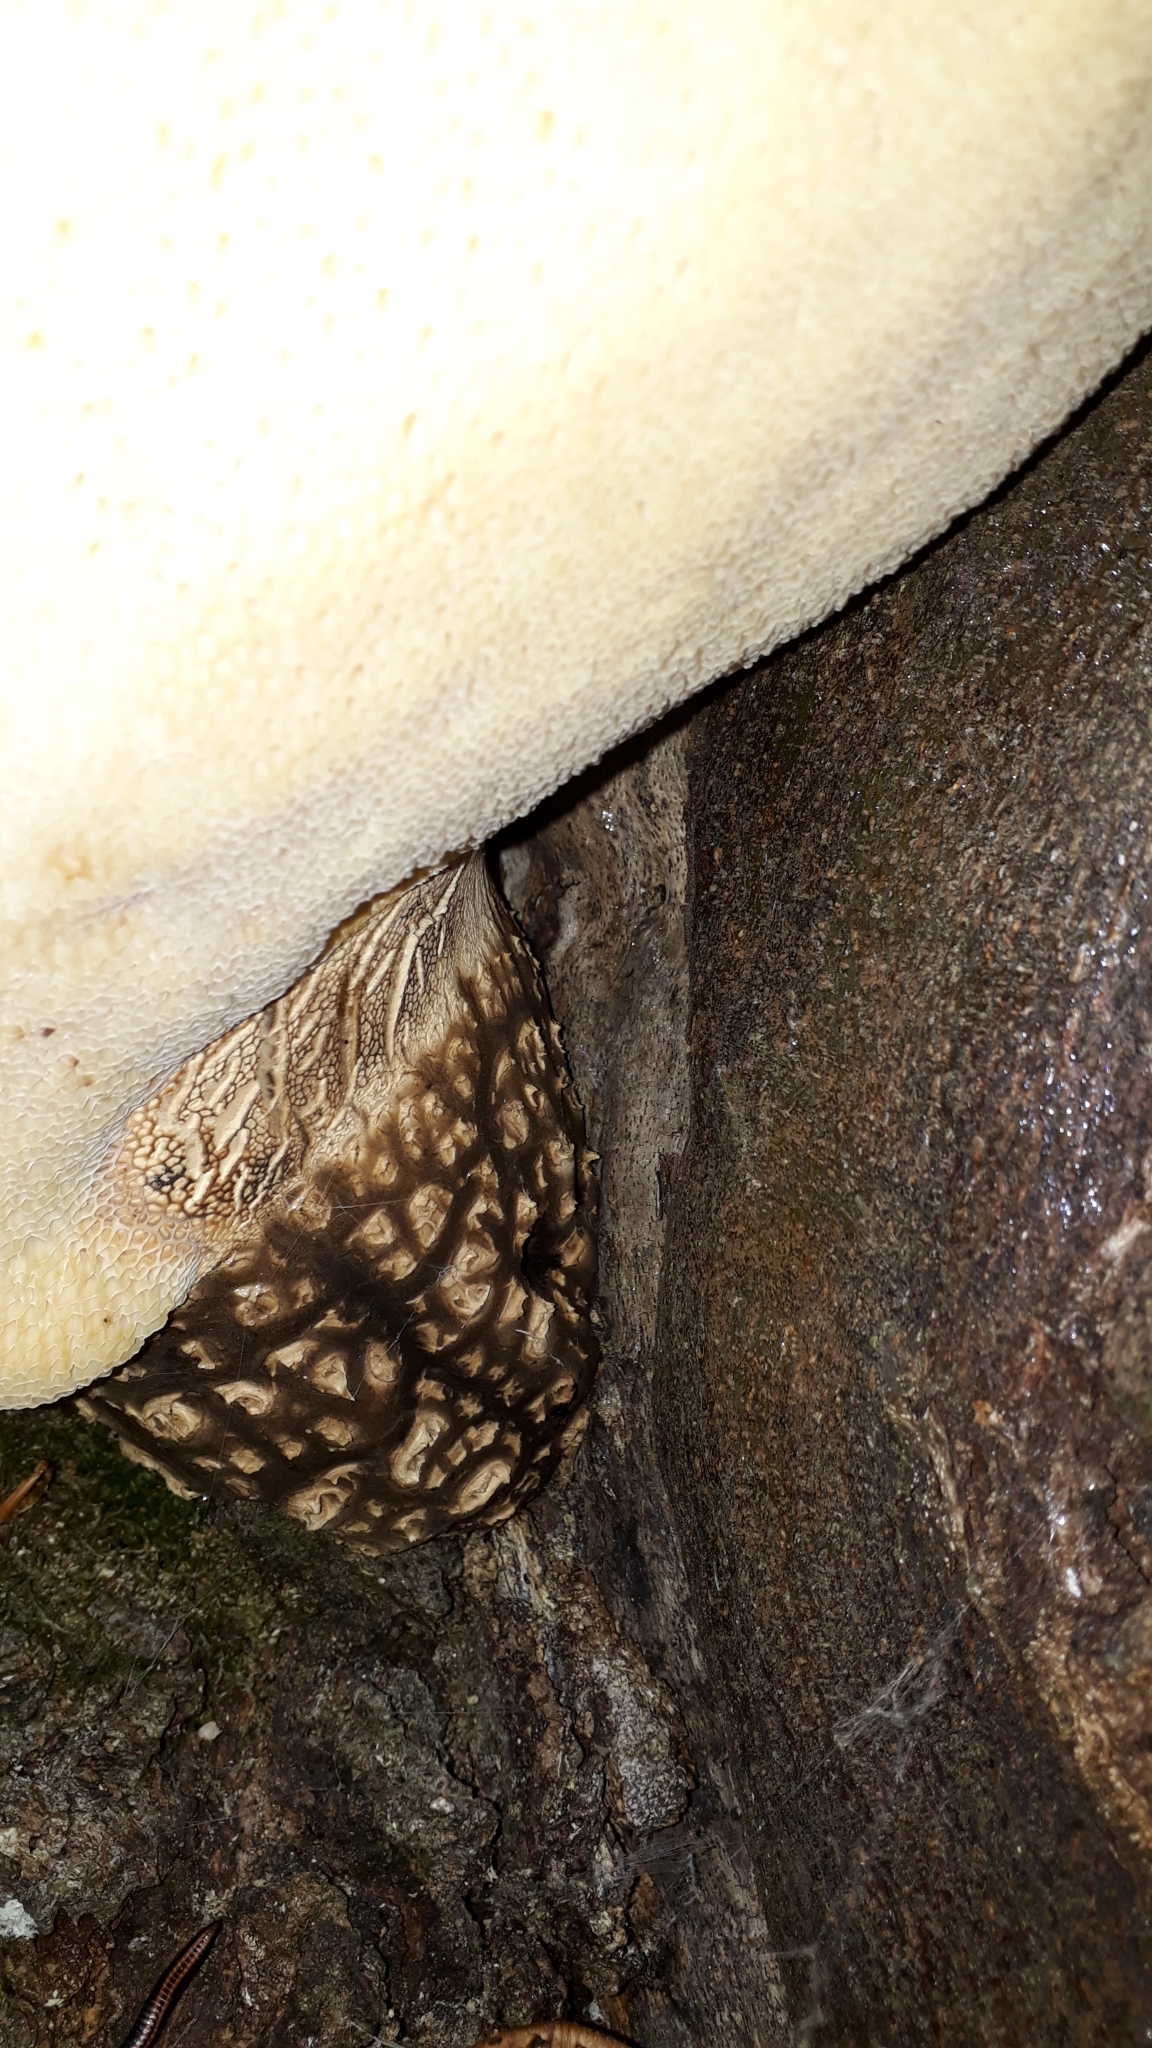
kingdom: Fungi
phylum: Basidiomycota
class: Agaricomycetes
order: Polyporales
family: Polyporaceae
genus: Cerioporus
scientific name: Cerioporus squamosus
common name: Dryad's saddle
